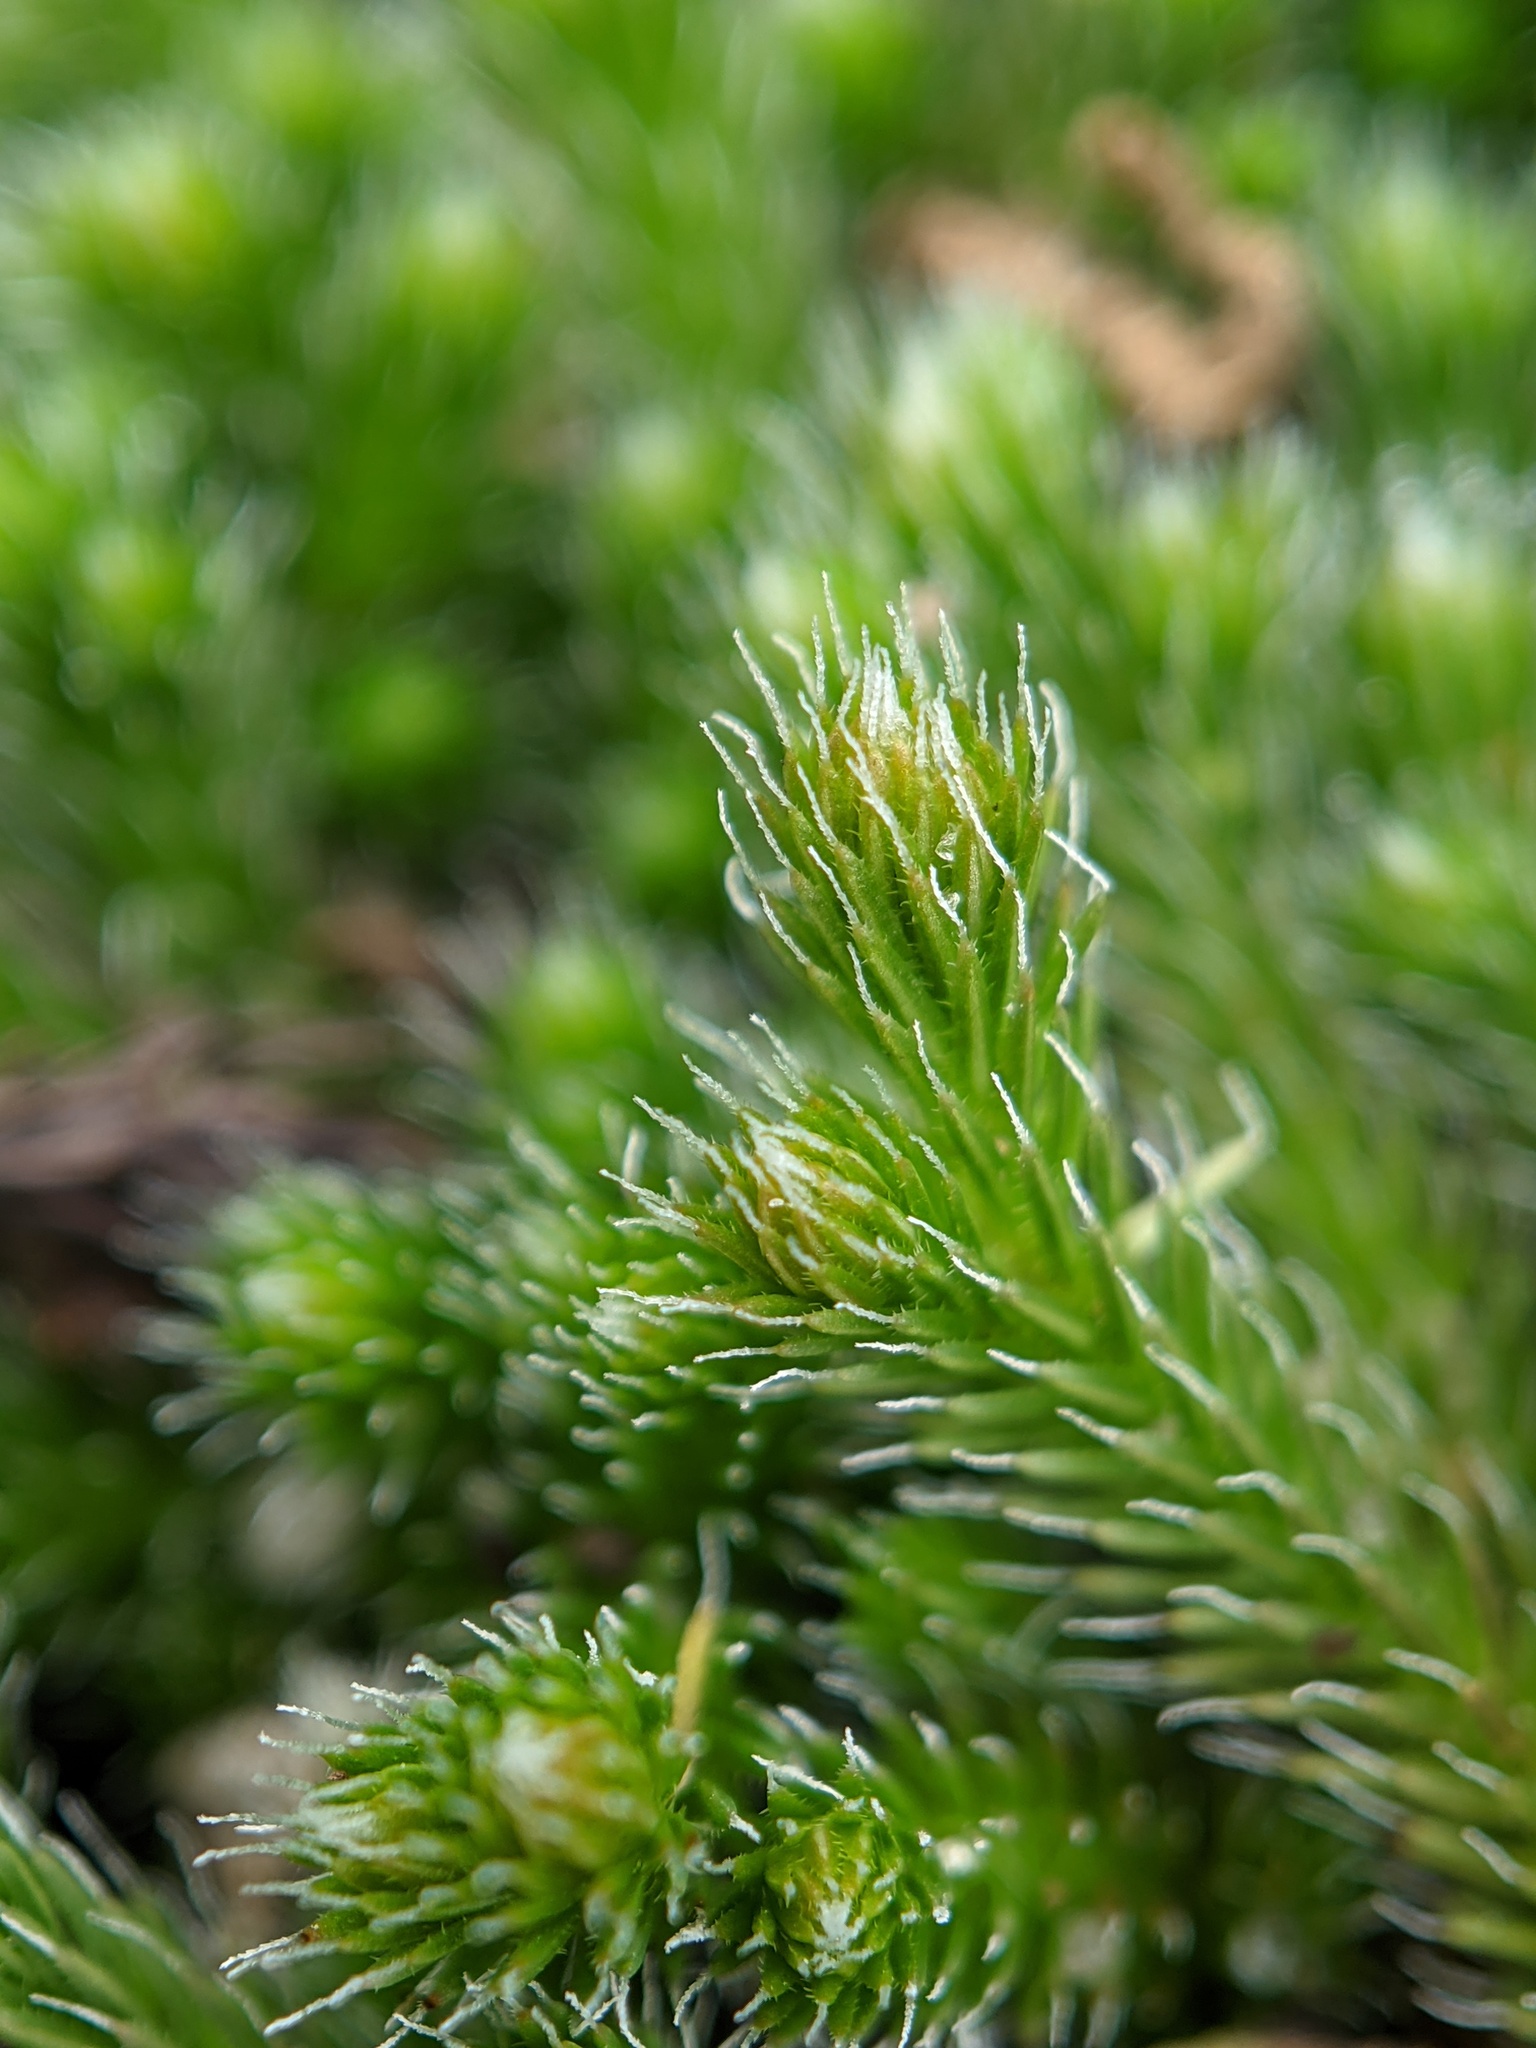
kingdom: Plantae
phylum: Tracheophyta
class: Lycopodiopsida
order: Selaginellales
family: Selaginellaceae
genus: Selaginella
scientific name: Selaginella rupestris
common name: Dwarf spikemoss
